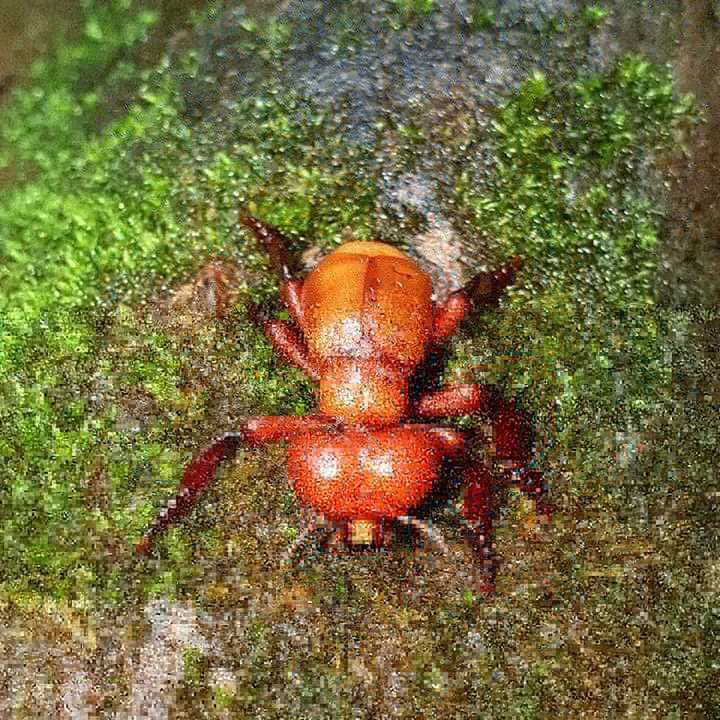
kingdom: Animalia
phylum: Arthropoda
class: Insecta
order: Coleoptera
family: Meloidae
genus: Meloetyphlus
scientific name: Meloetyphlus
